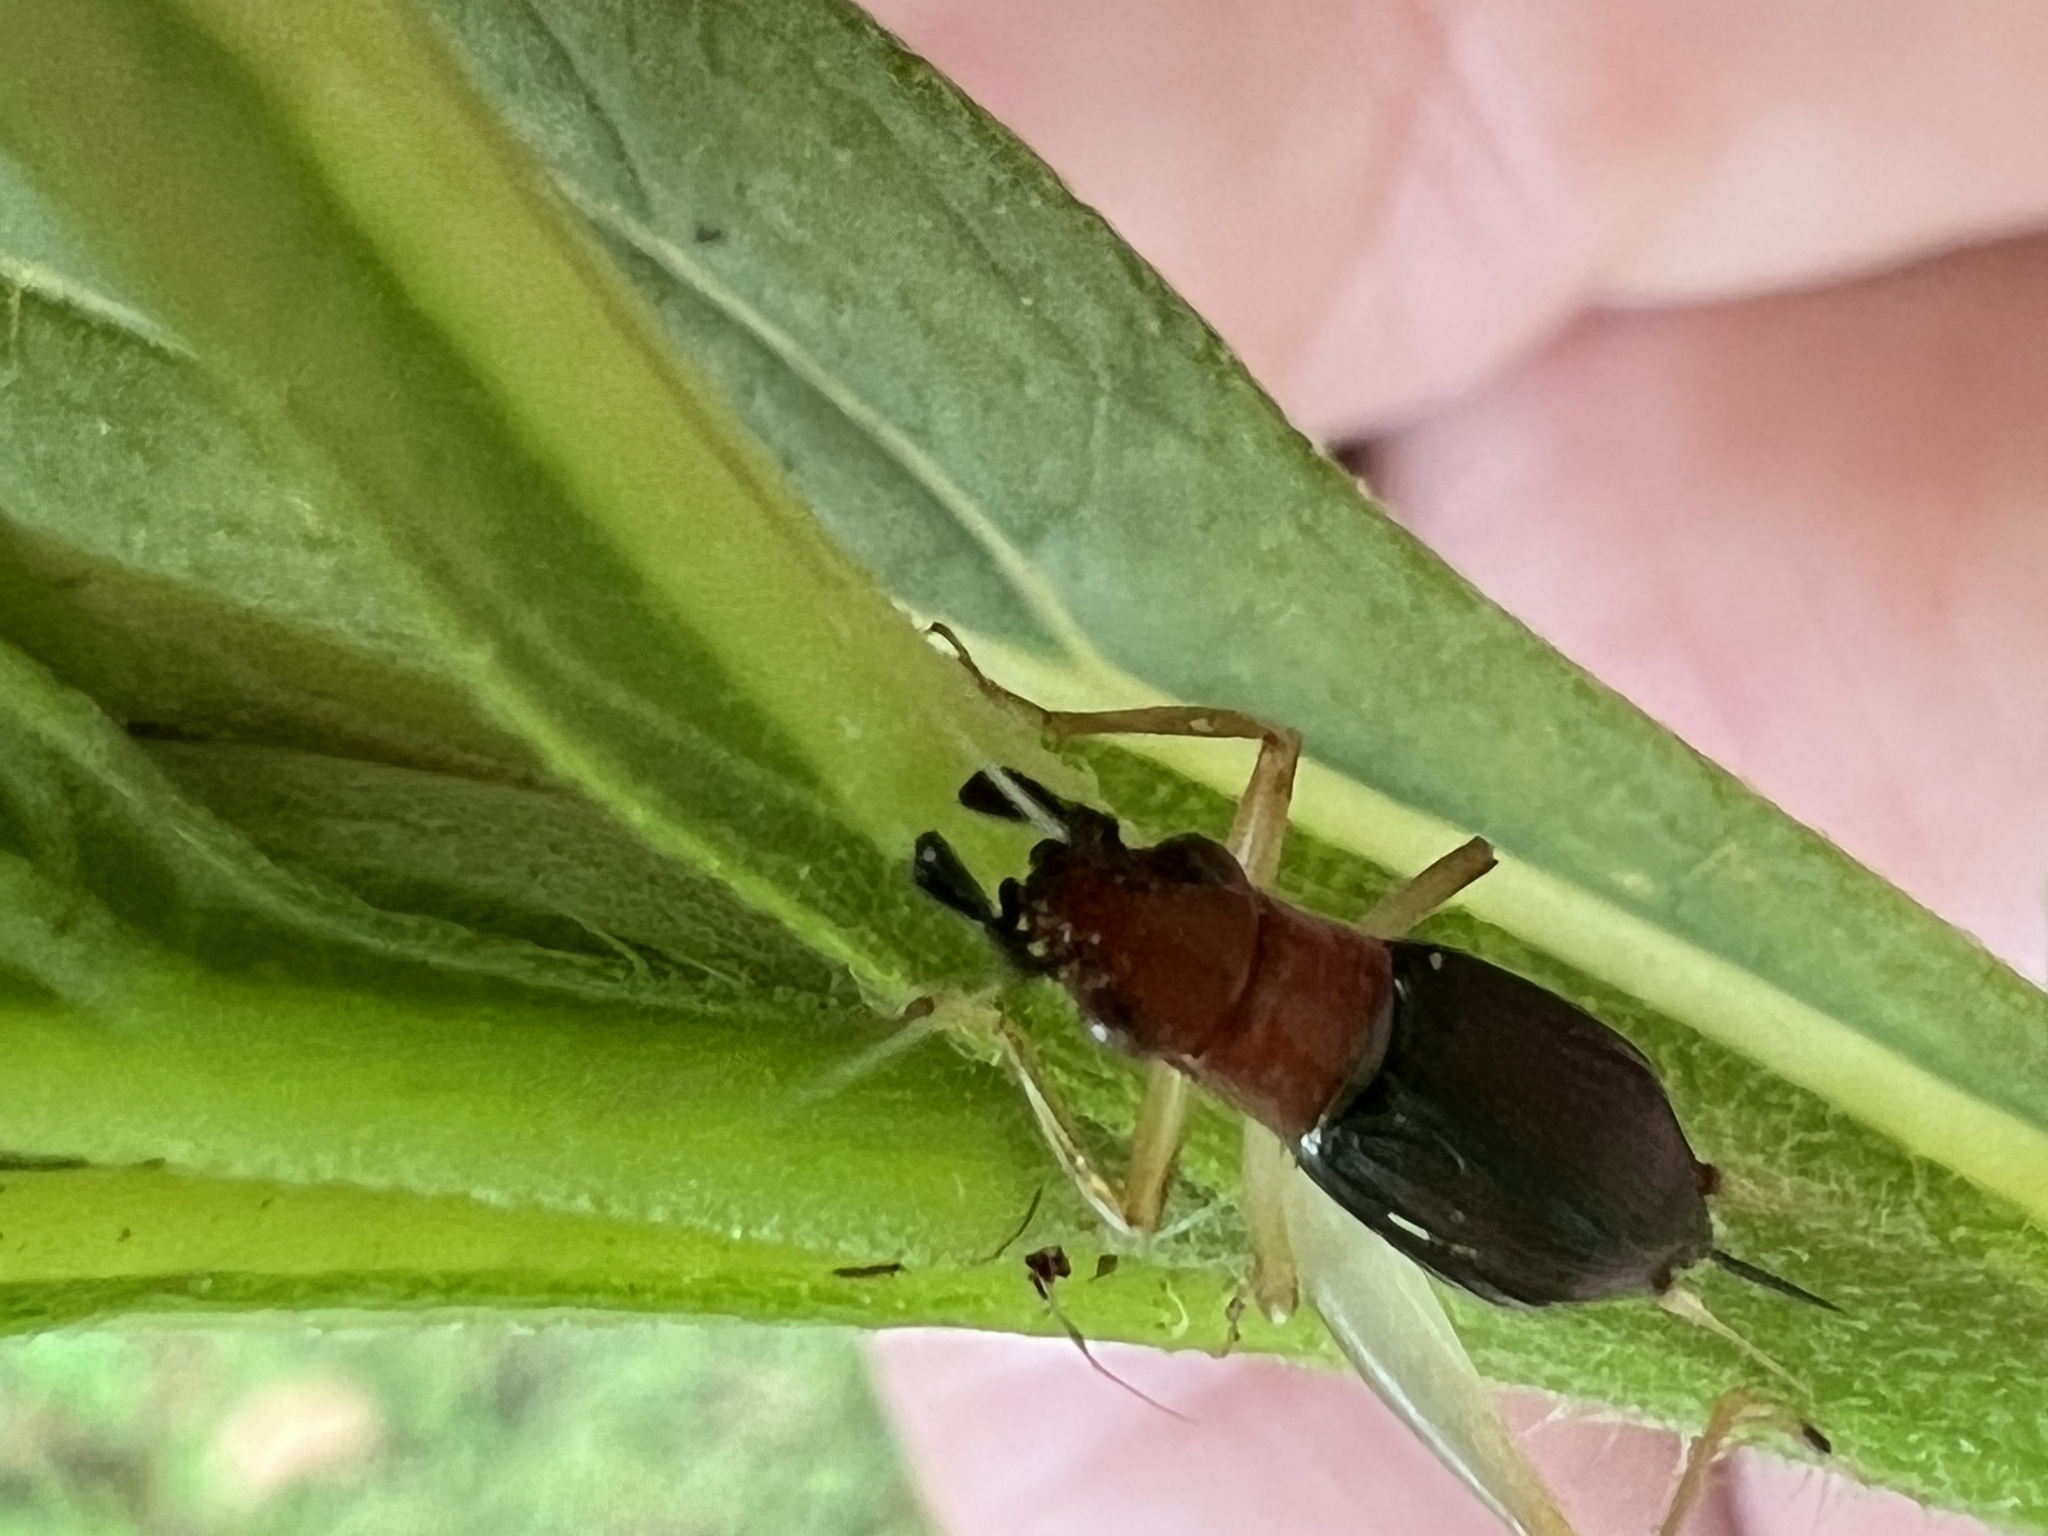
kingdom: Animalia
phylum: Arthropoda
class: Insecta
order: Orthoptera
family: Trigonidiidae
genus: Phyllopalpus
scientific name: Phyllopalpus pulchellus
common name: Handsome trig
